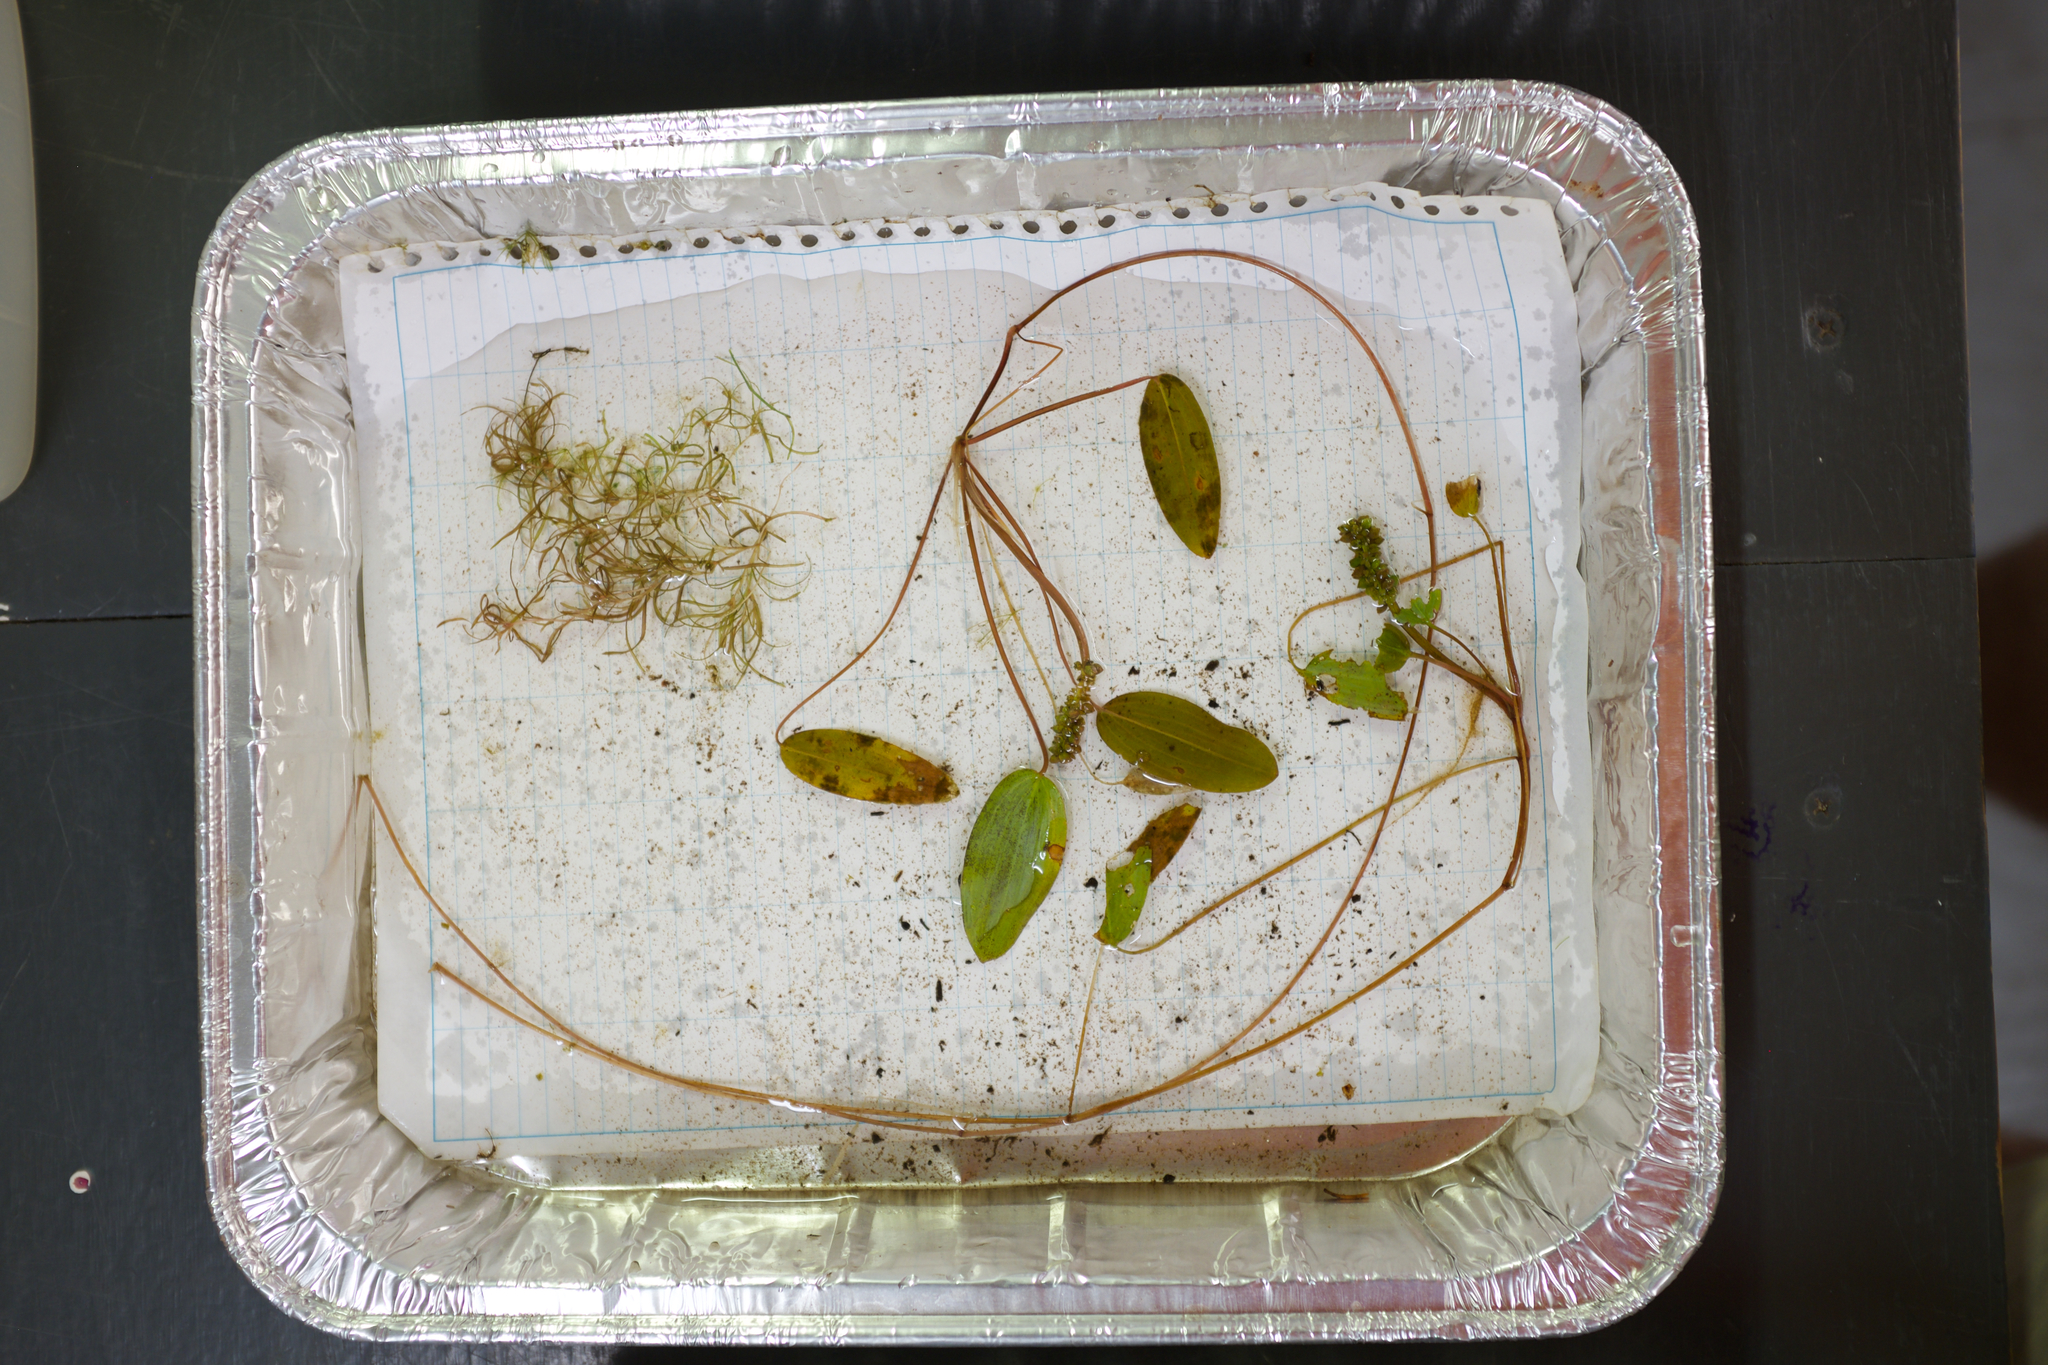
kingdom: Plantae
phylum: Tracheophyta
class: Liliopsida
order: Alismatales
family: Potamogetonaceae
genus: Potamogeton
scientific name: Potamogeton oakesianus
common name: Oakes' pondweed
